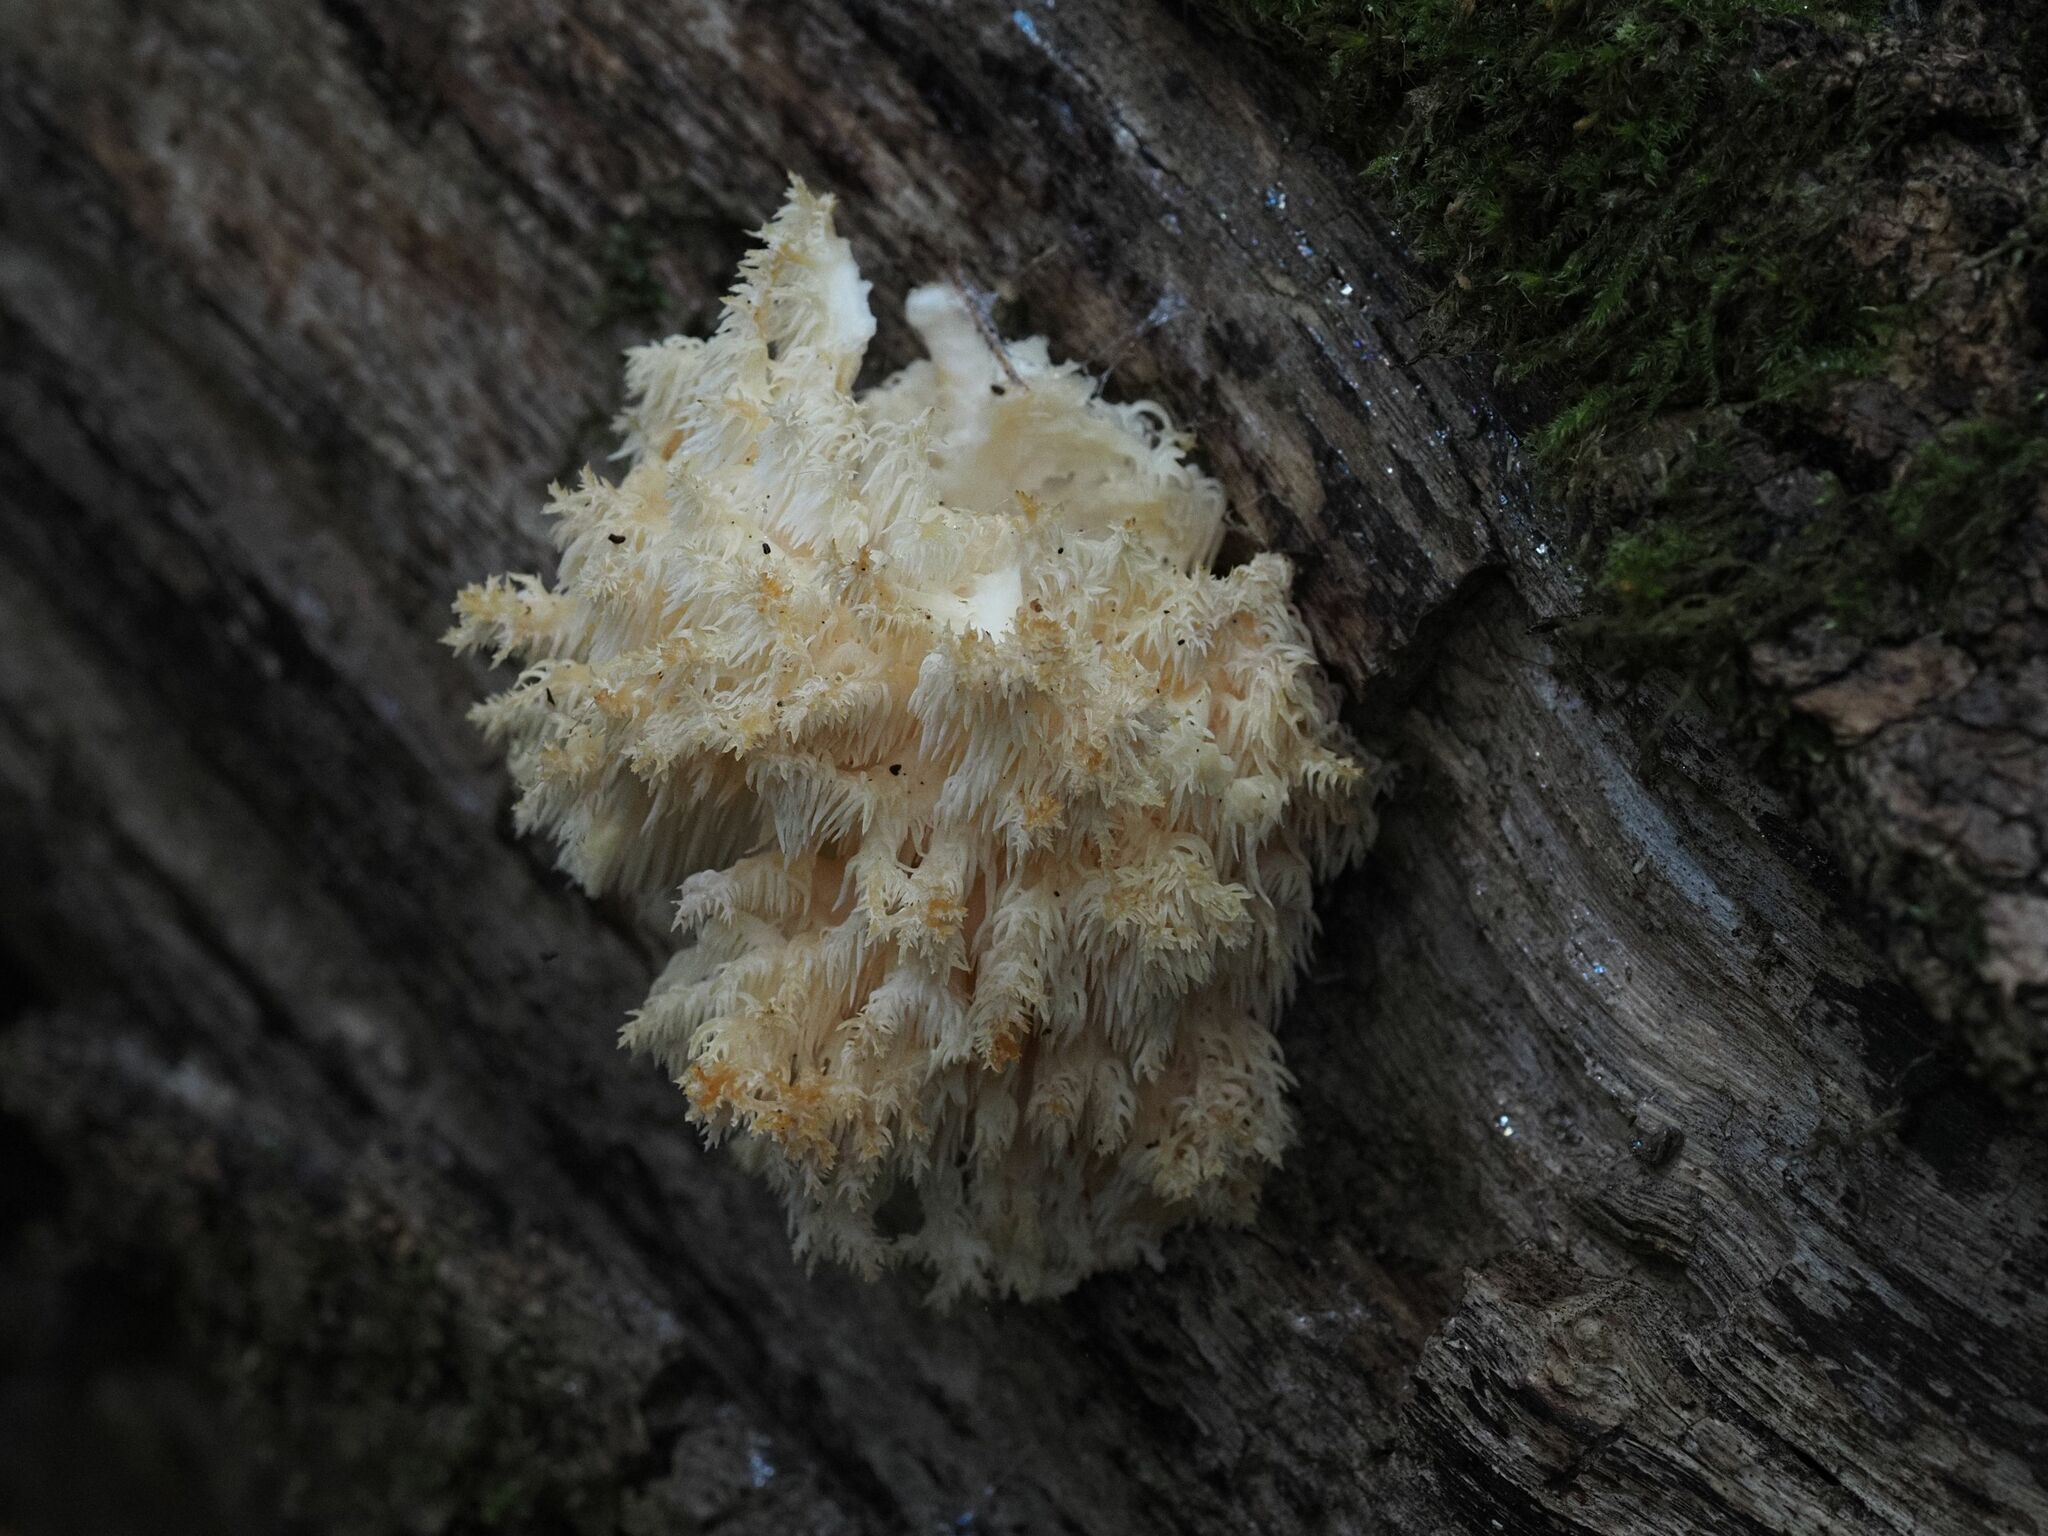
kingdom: Fungi
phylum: Basidiomycota
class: Agaricomycetes
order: Russulales
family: Hericiaceae
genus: Hericium
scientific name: Hericium coralloides
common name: Coral tooth
